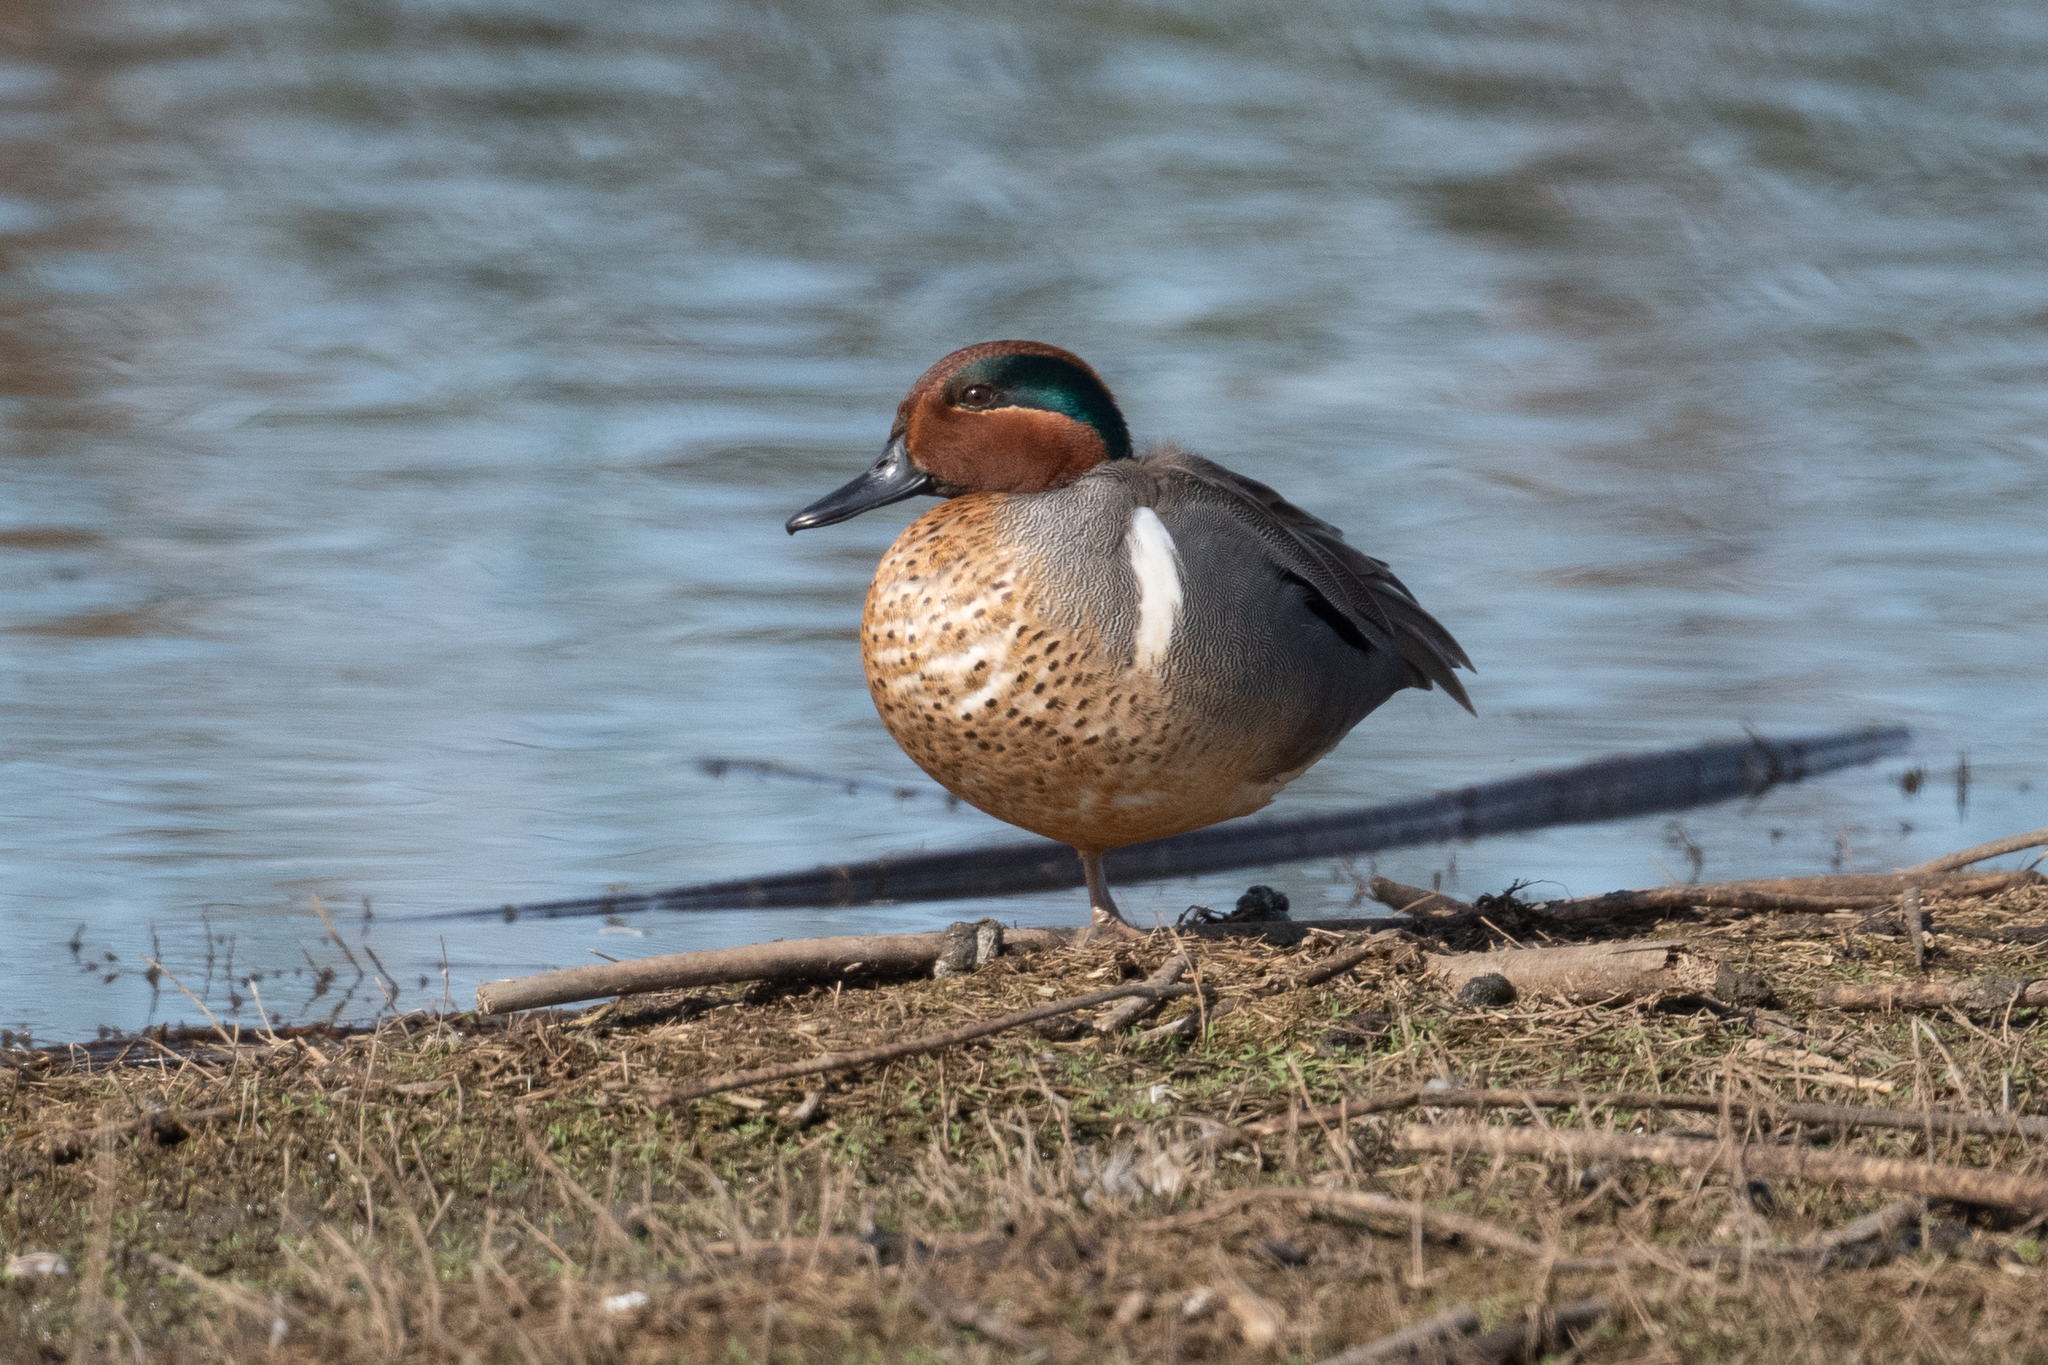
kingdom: Animalia
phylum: Chordata
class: Aves
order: Anseriformes
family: Anatidae
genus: Anas
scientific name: Anas crecca
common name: Eurasian teal
